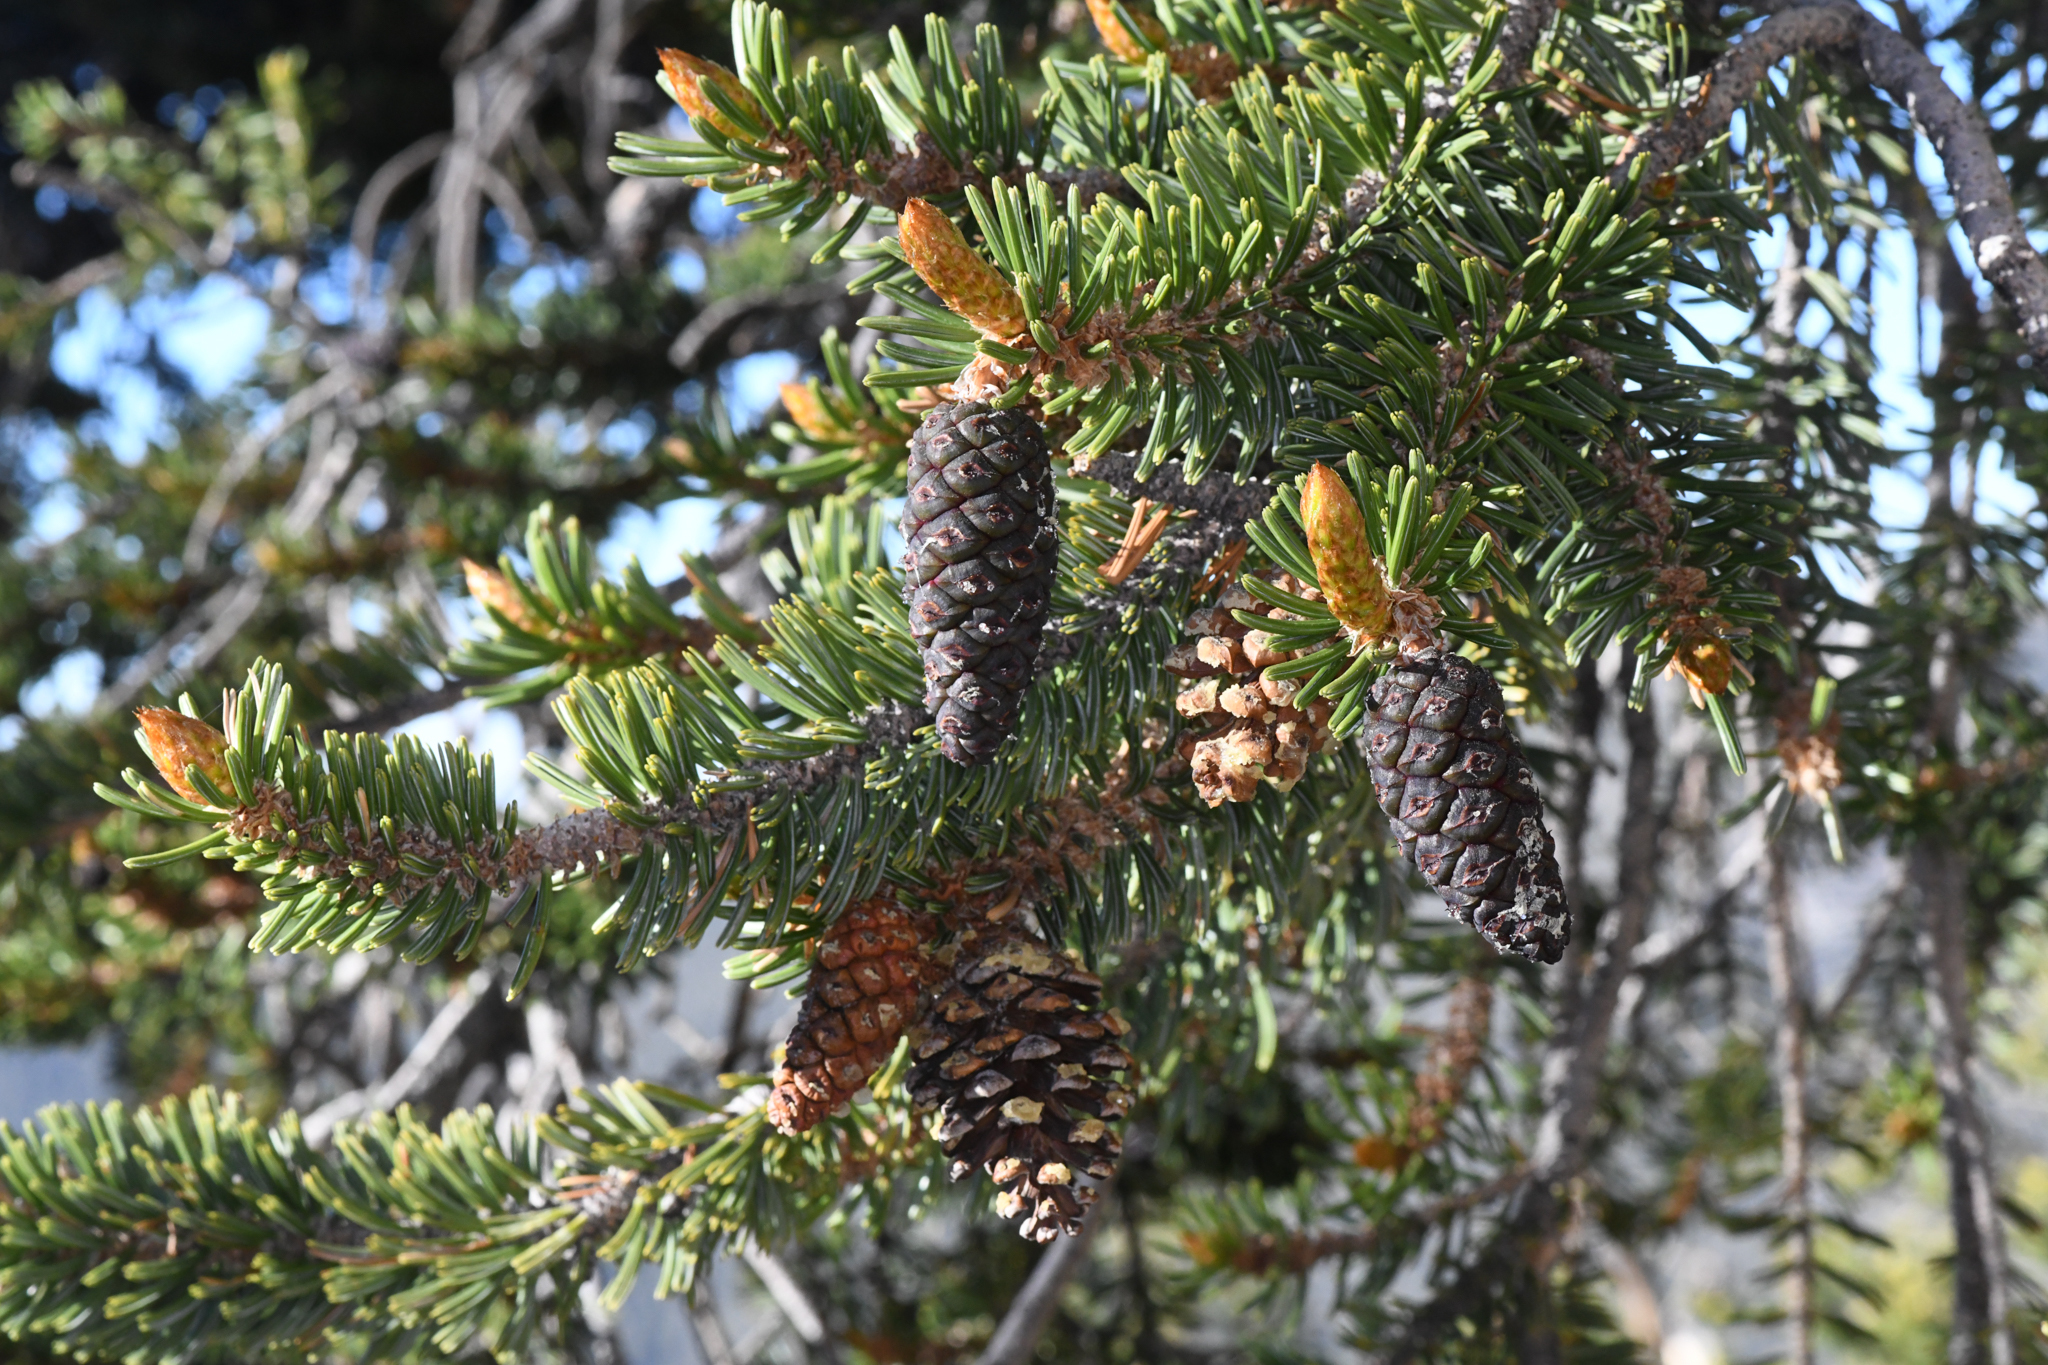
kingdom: Plantae
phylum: Tracheophyta
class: Pinopsida
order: Pinales
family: Pinaceae
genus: Pinus
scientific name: Pinus balfouriana
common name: Foxtail pine
